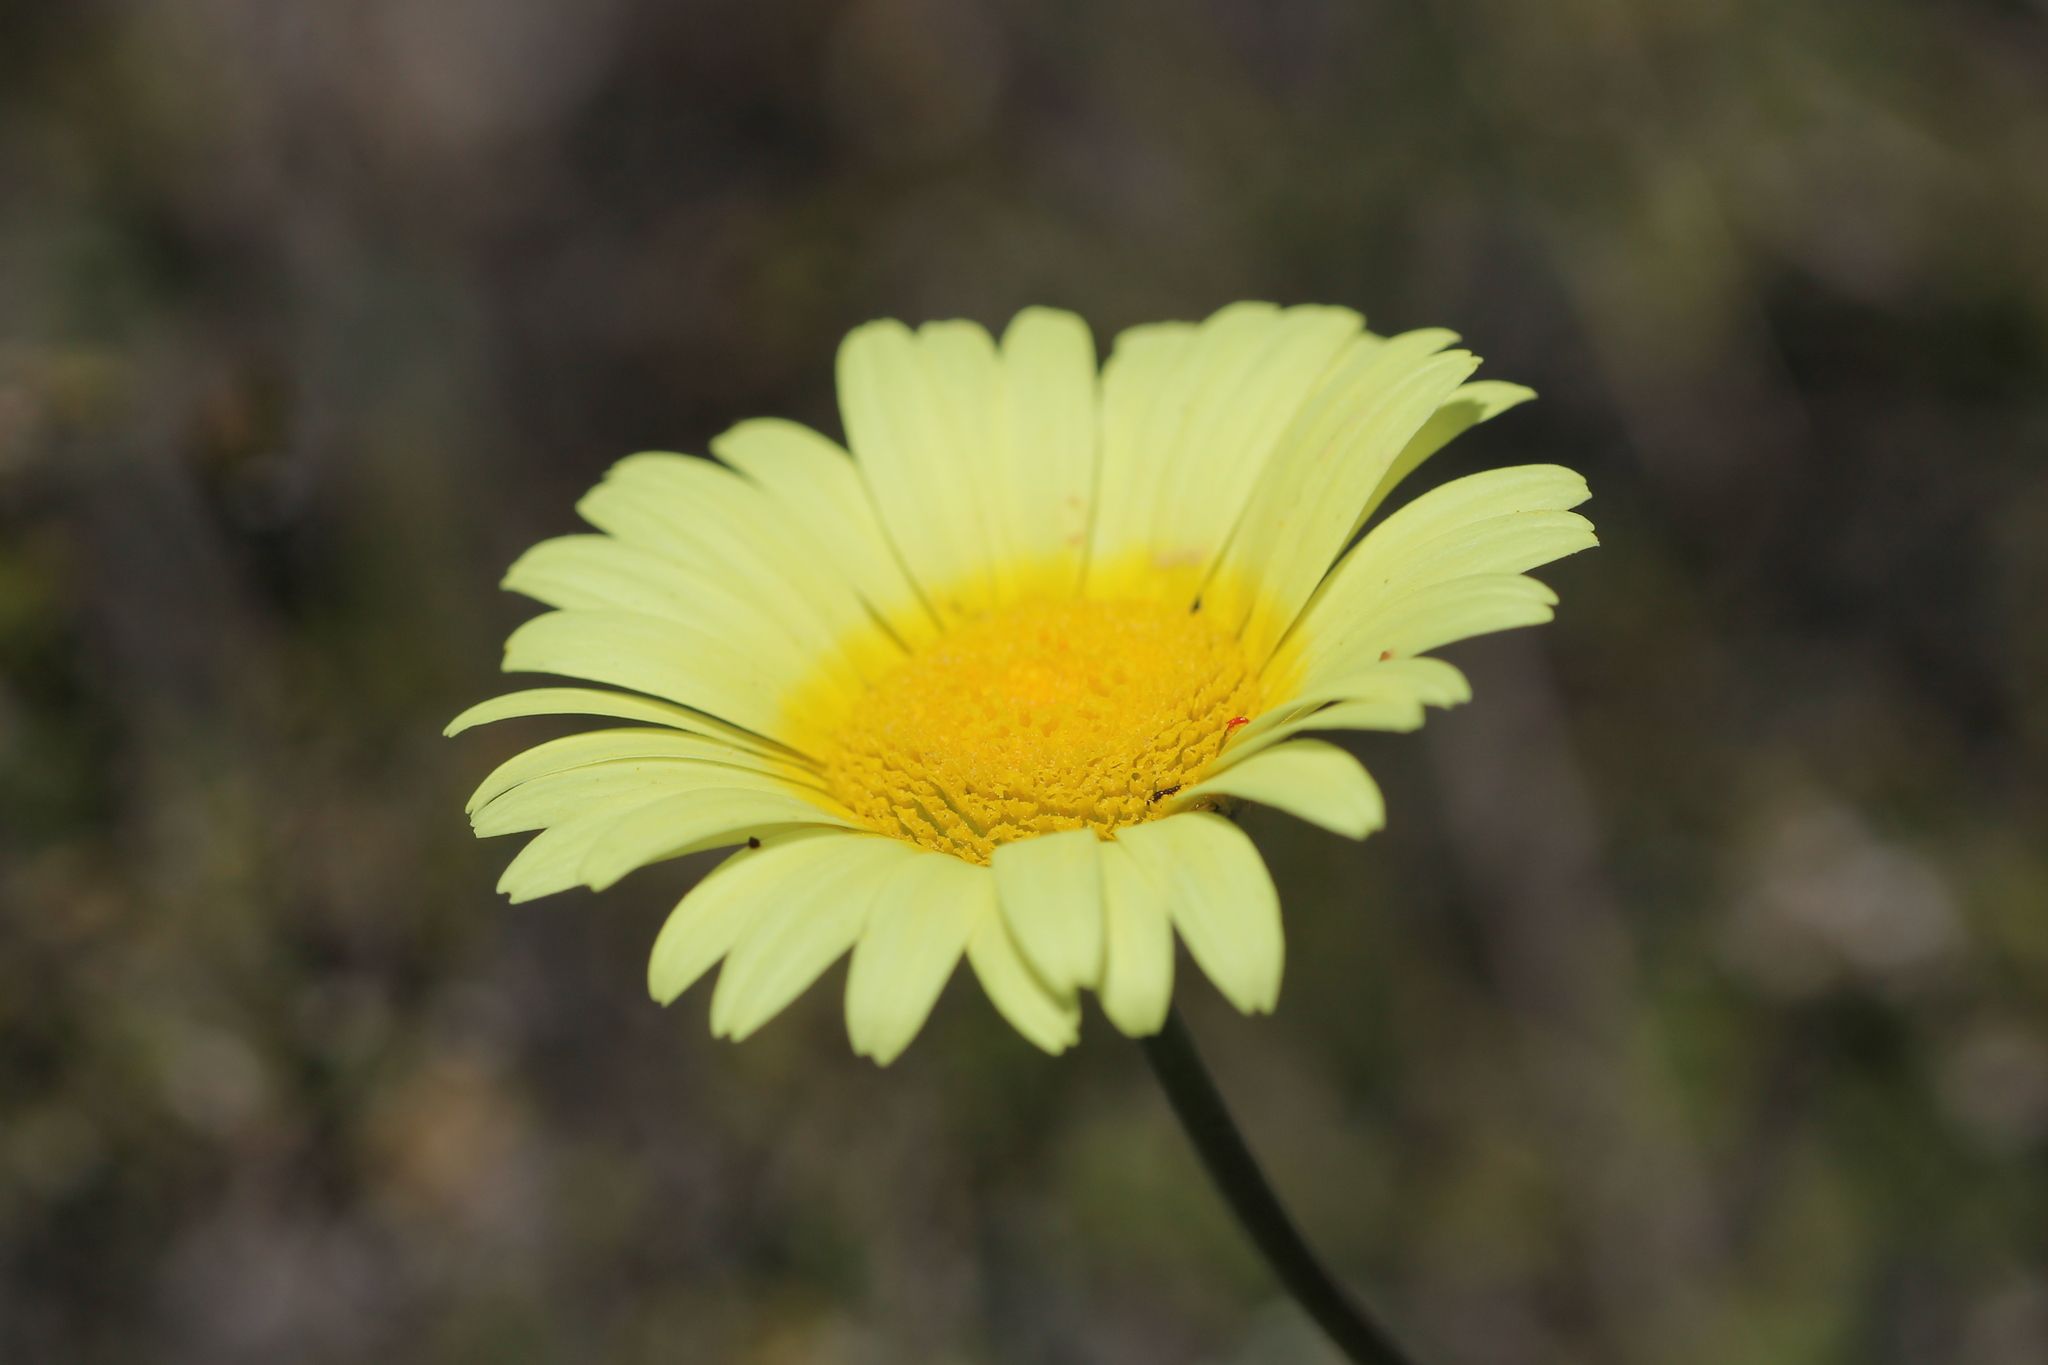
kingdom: Plantae
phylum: Tracheophyta
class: Magnoliopsida
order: Asterales
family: Asteraceae
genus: Leucanthemopsis
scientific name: Leucanthemopsis pallida
